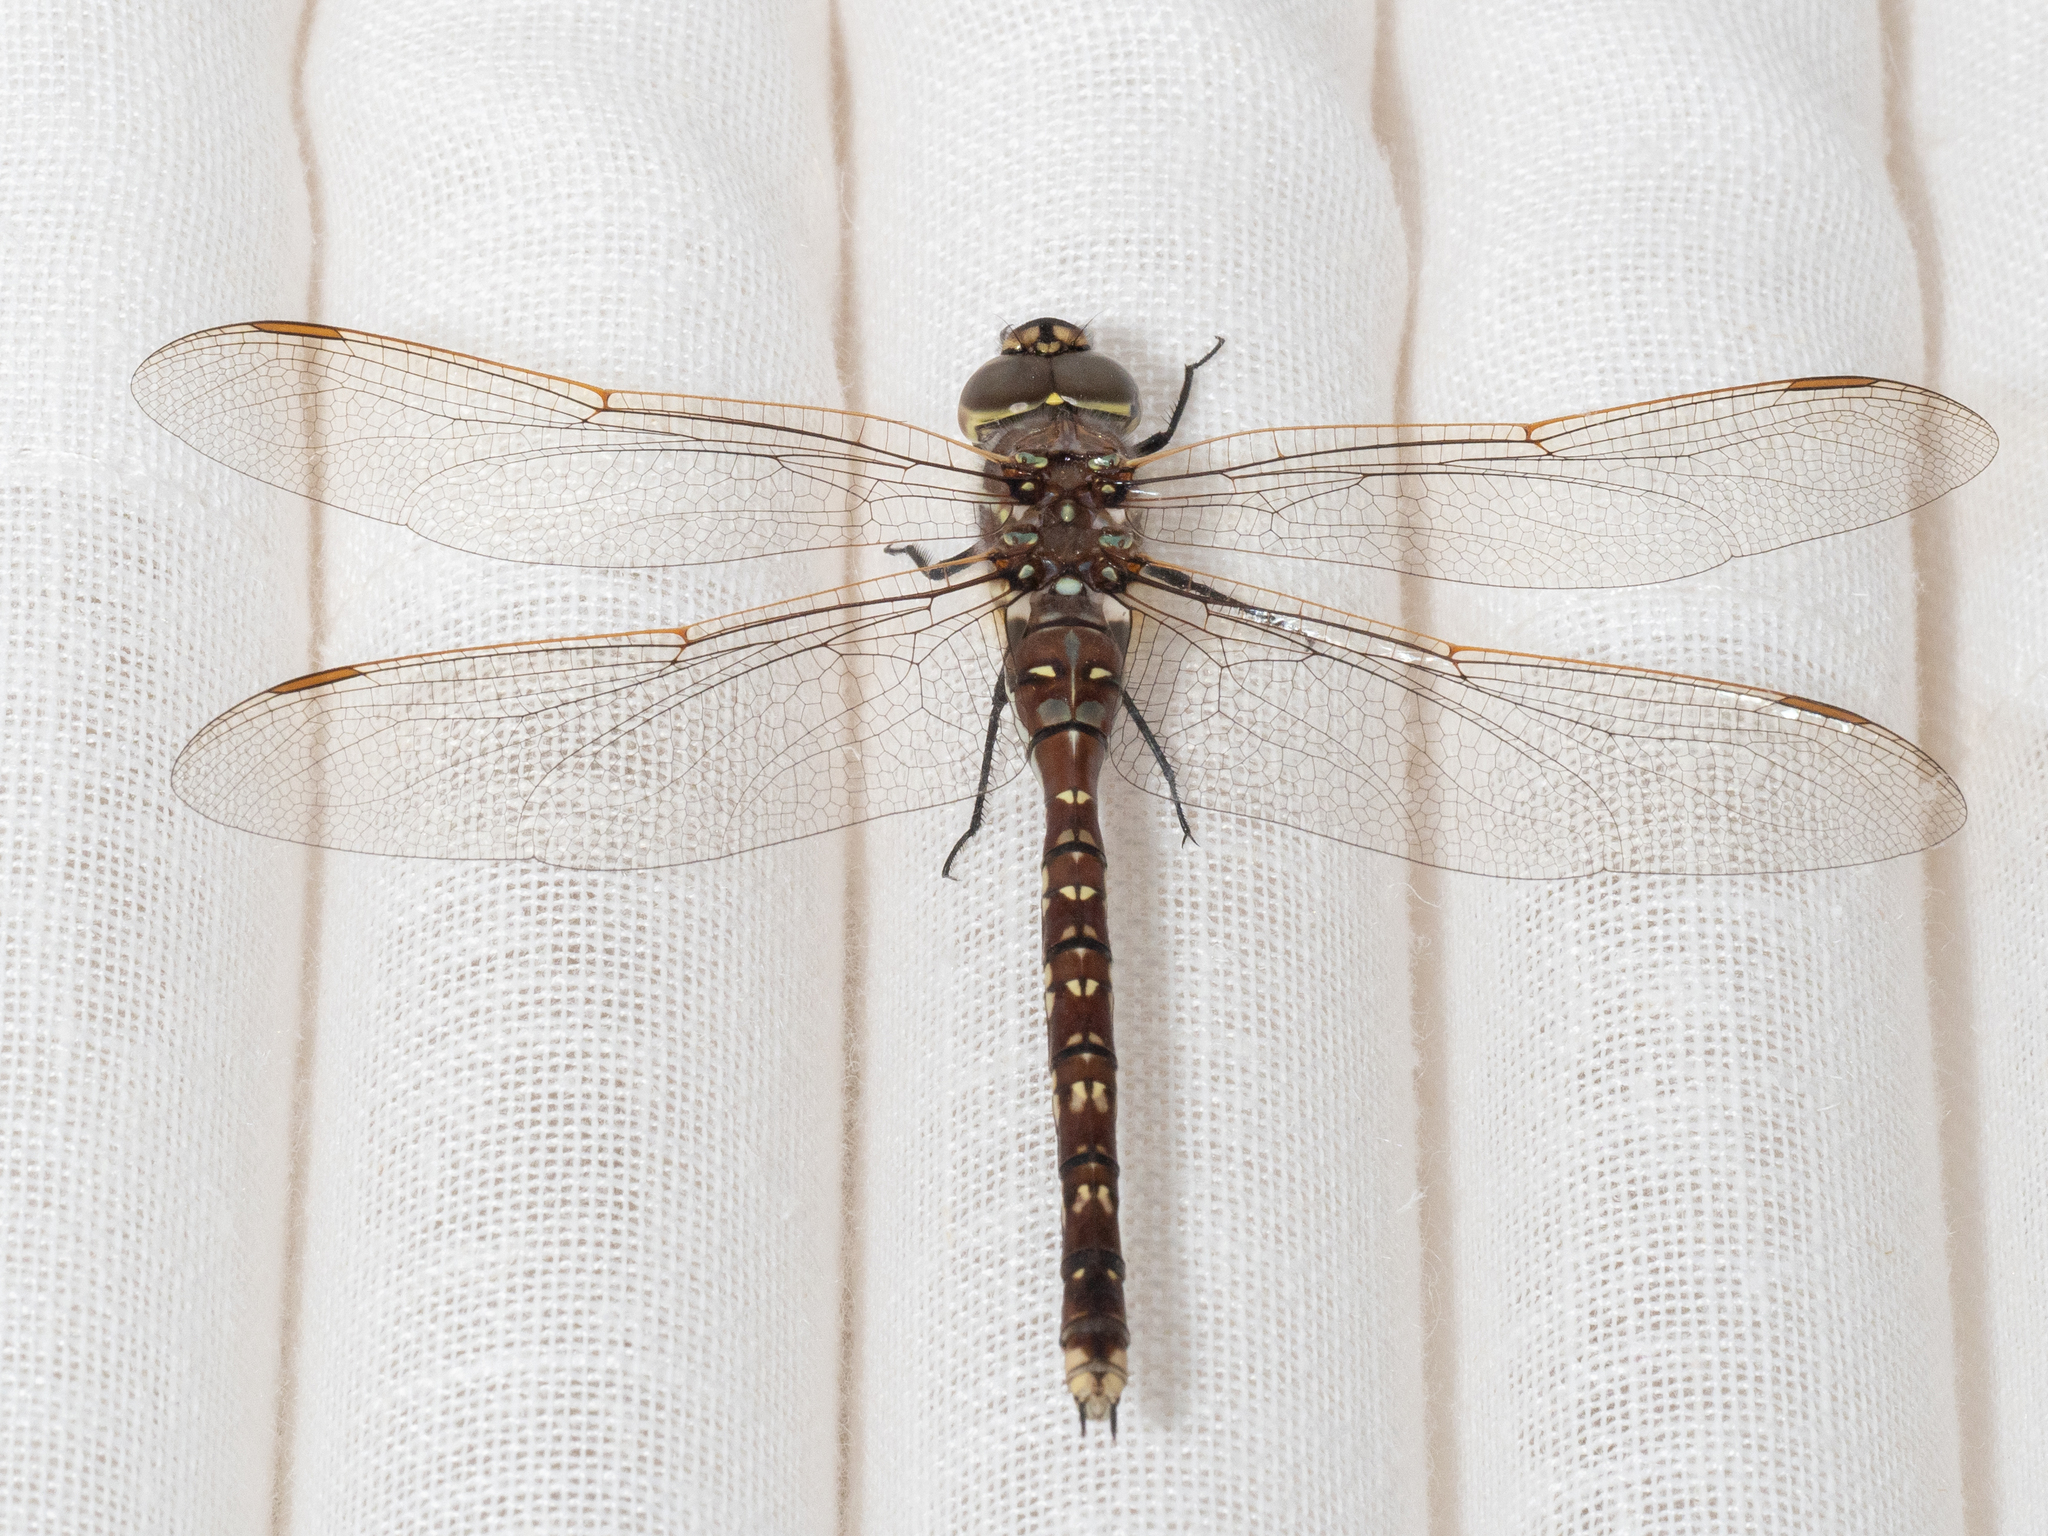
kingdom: Animalia
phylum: Arthropoda
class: Insecta
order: Odonata
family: Aeshnidae
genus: Aeshna
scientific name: Aeshna brevistyla
